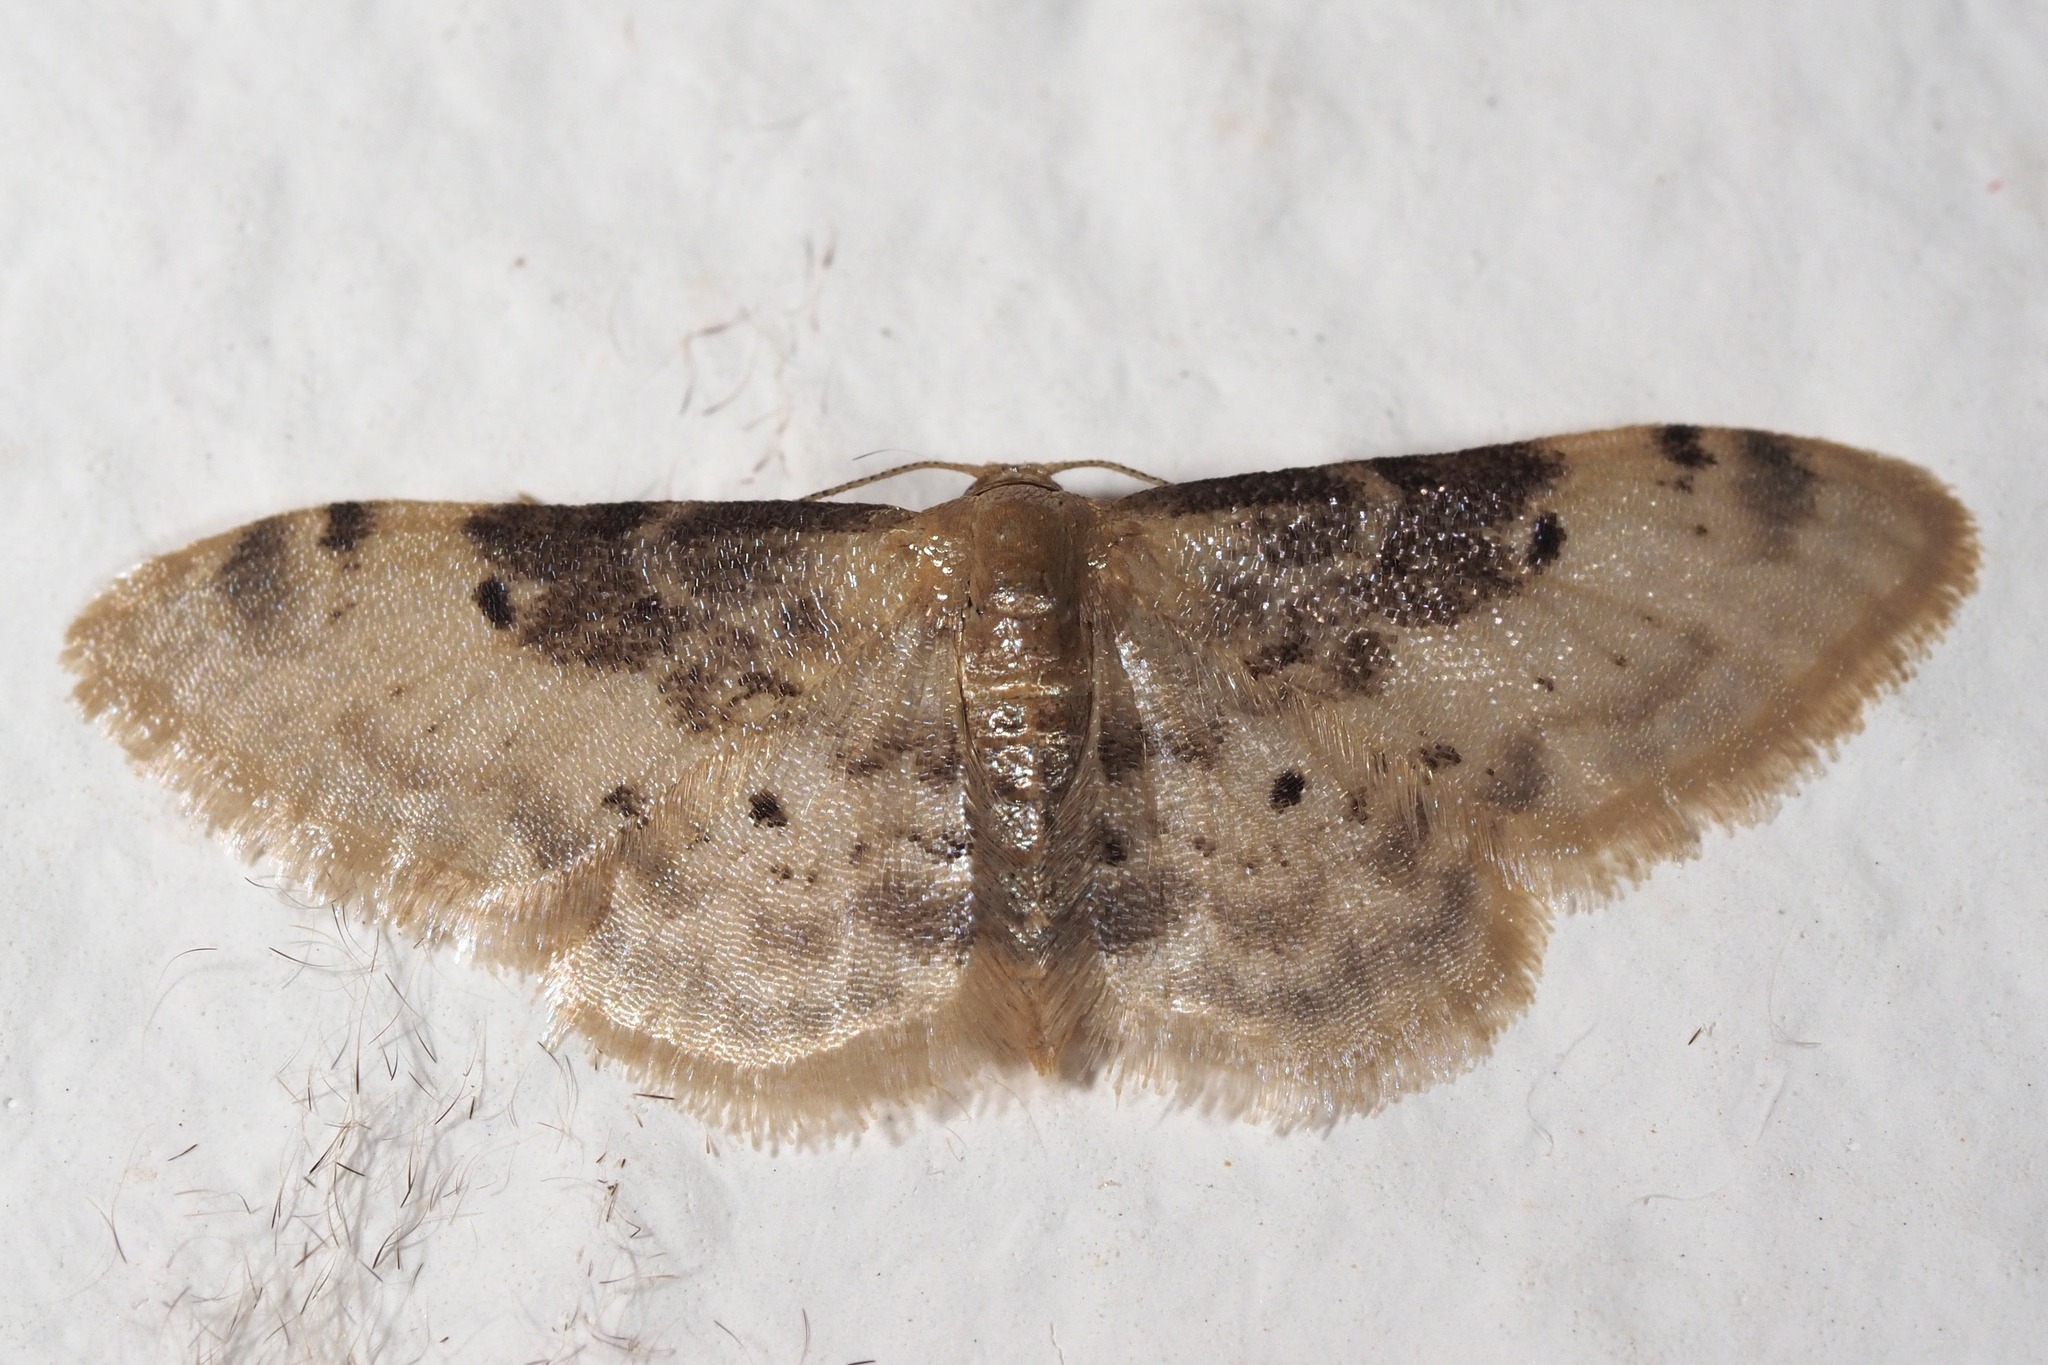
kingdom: Animalia
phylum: Arthropoda
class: Insecta
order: Lepidoptera
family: Geometridae
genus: Idaea
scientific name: Idaea filicata
